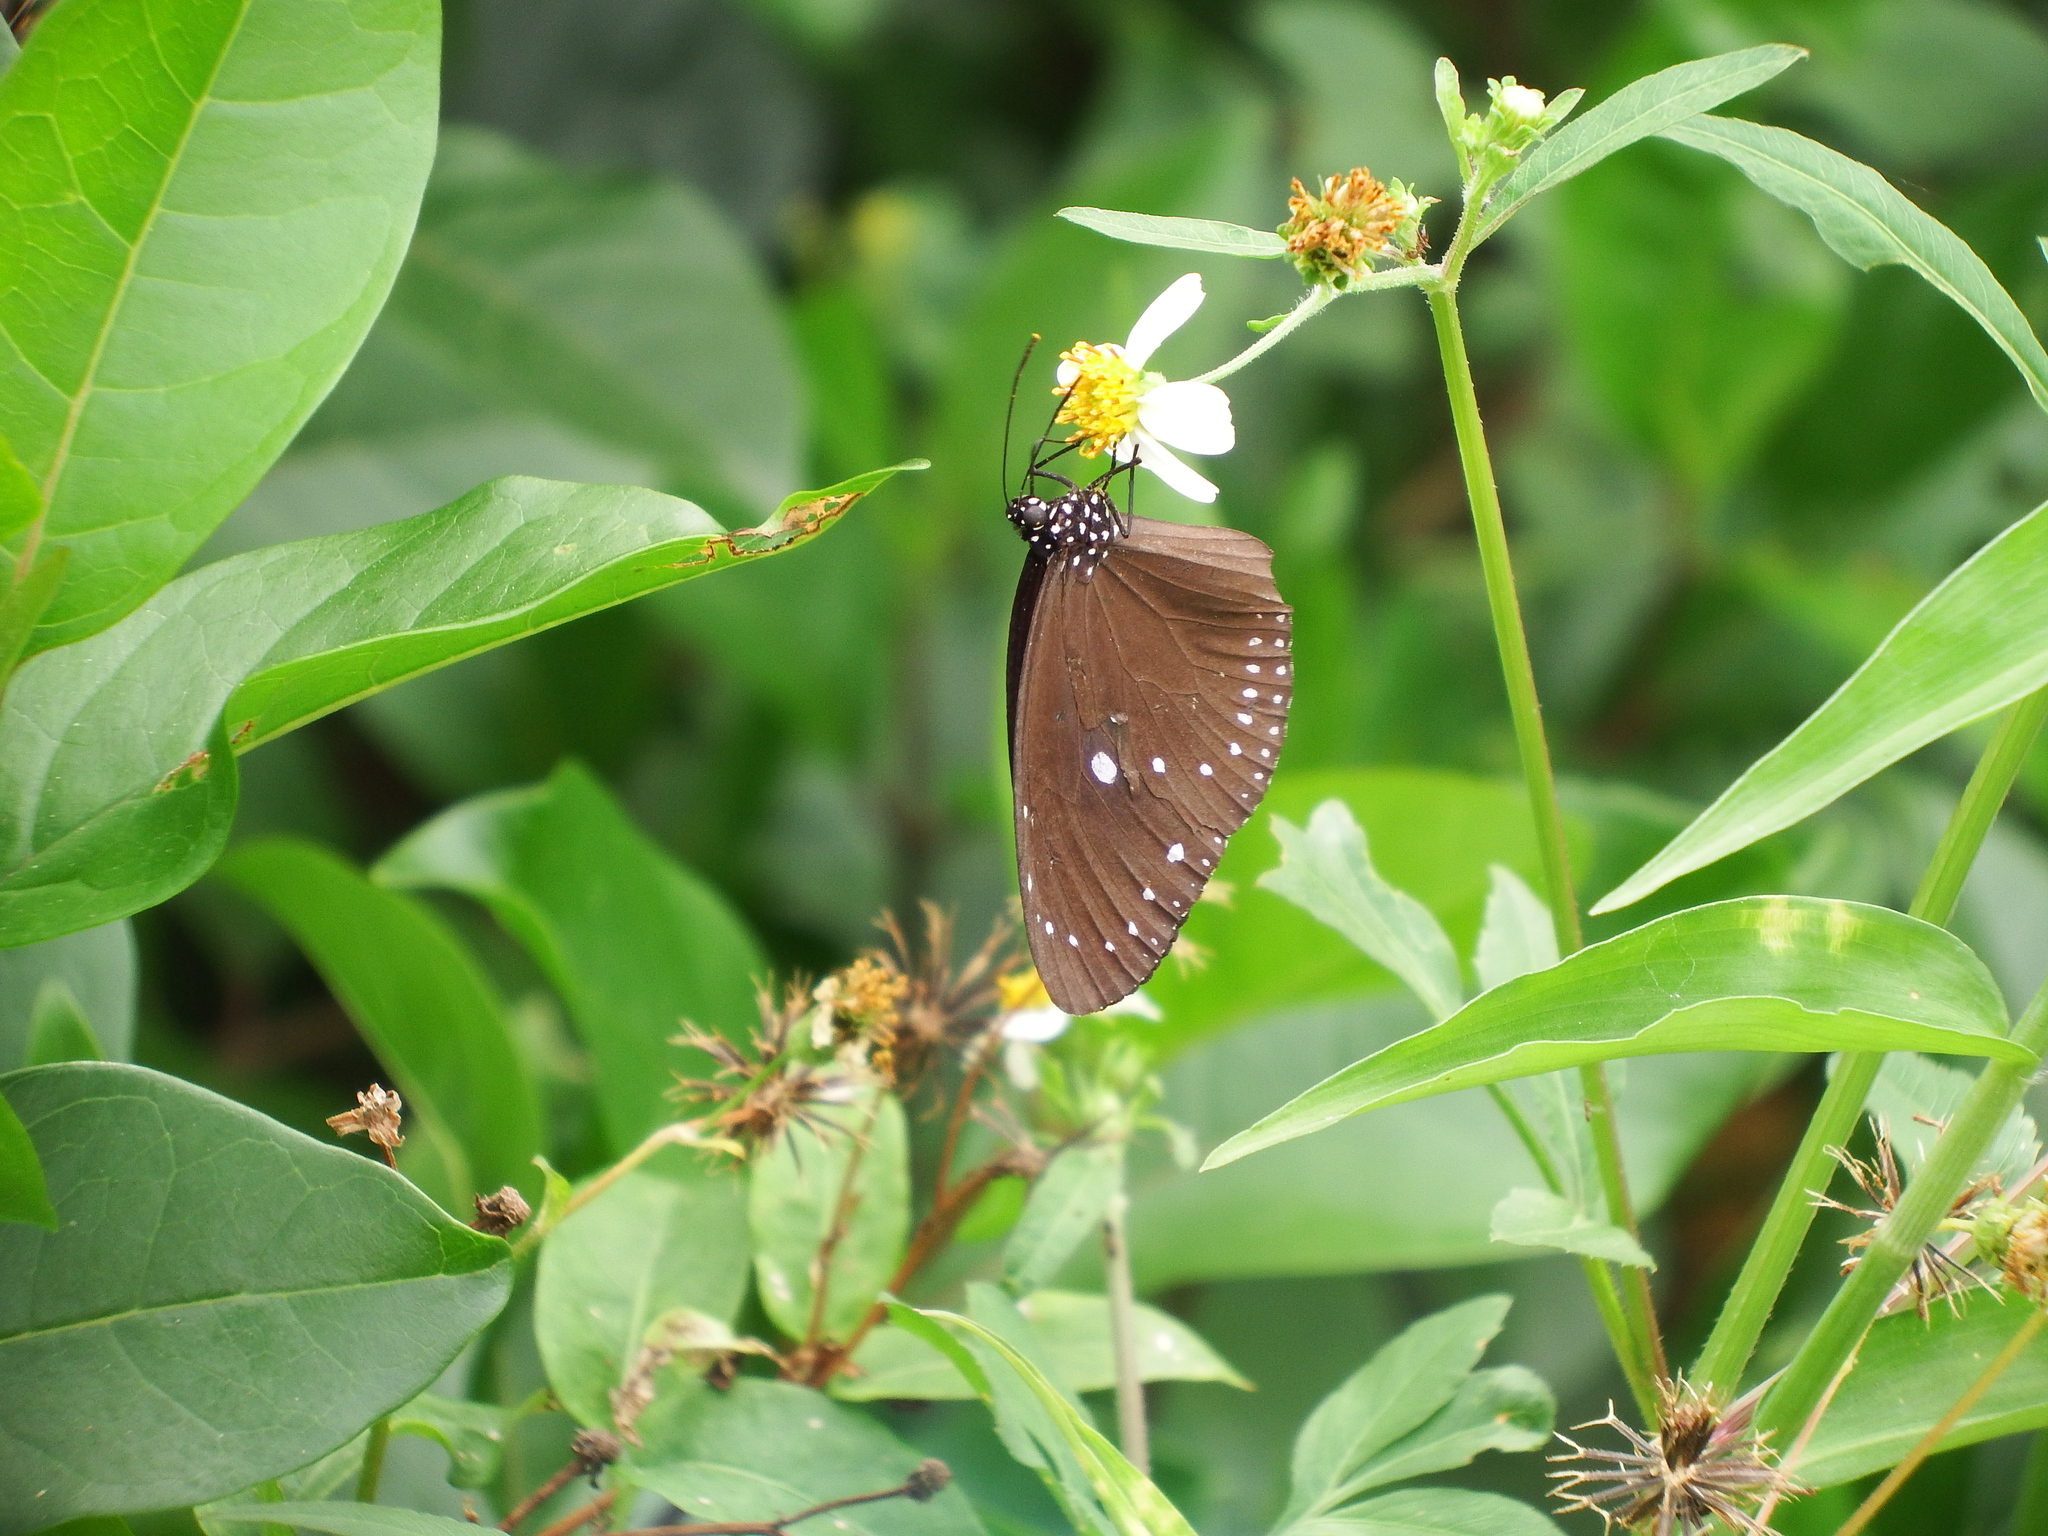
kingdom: Animalia
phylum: Arthropoda
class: Insecta
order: Lepidoptera
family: Nymphalidae
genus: Euploea
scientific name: Euploea tulliolus
